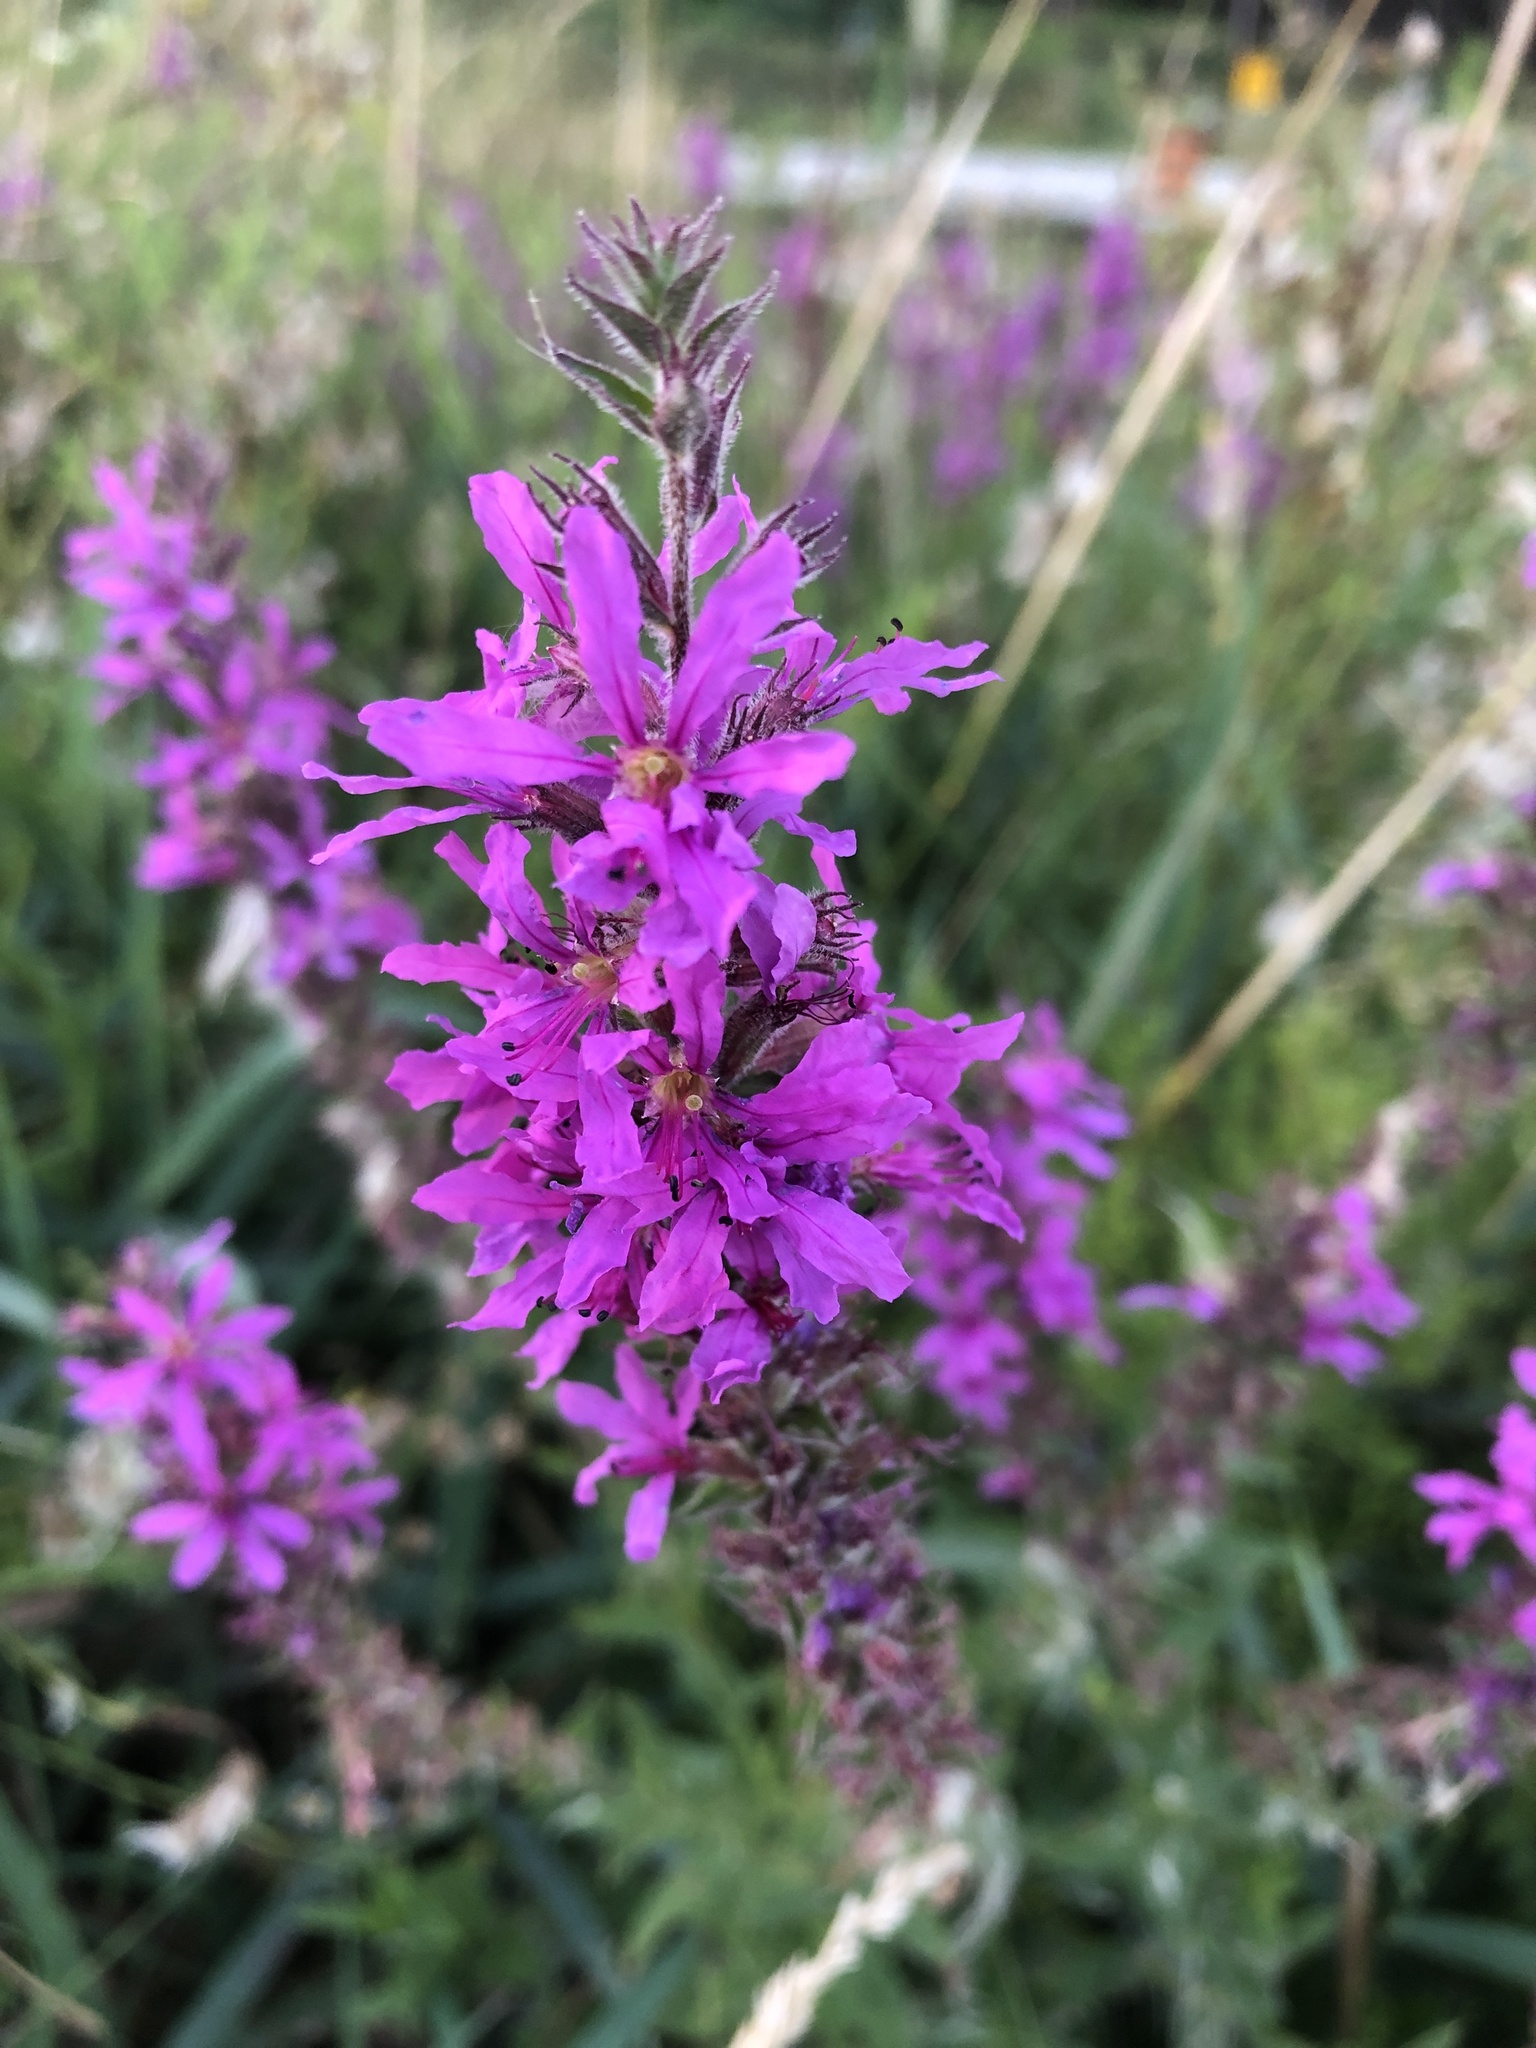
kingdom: Plantae
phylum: Tracheophyta
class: Magnoliopsida
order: Myrtales
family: Lythraceae
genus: Lythrum
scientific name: Lythrum salicaria
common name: Purple loosestrife
